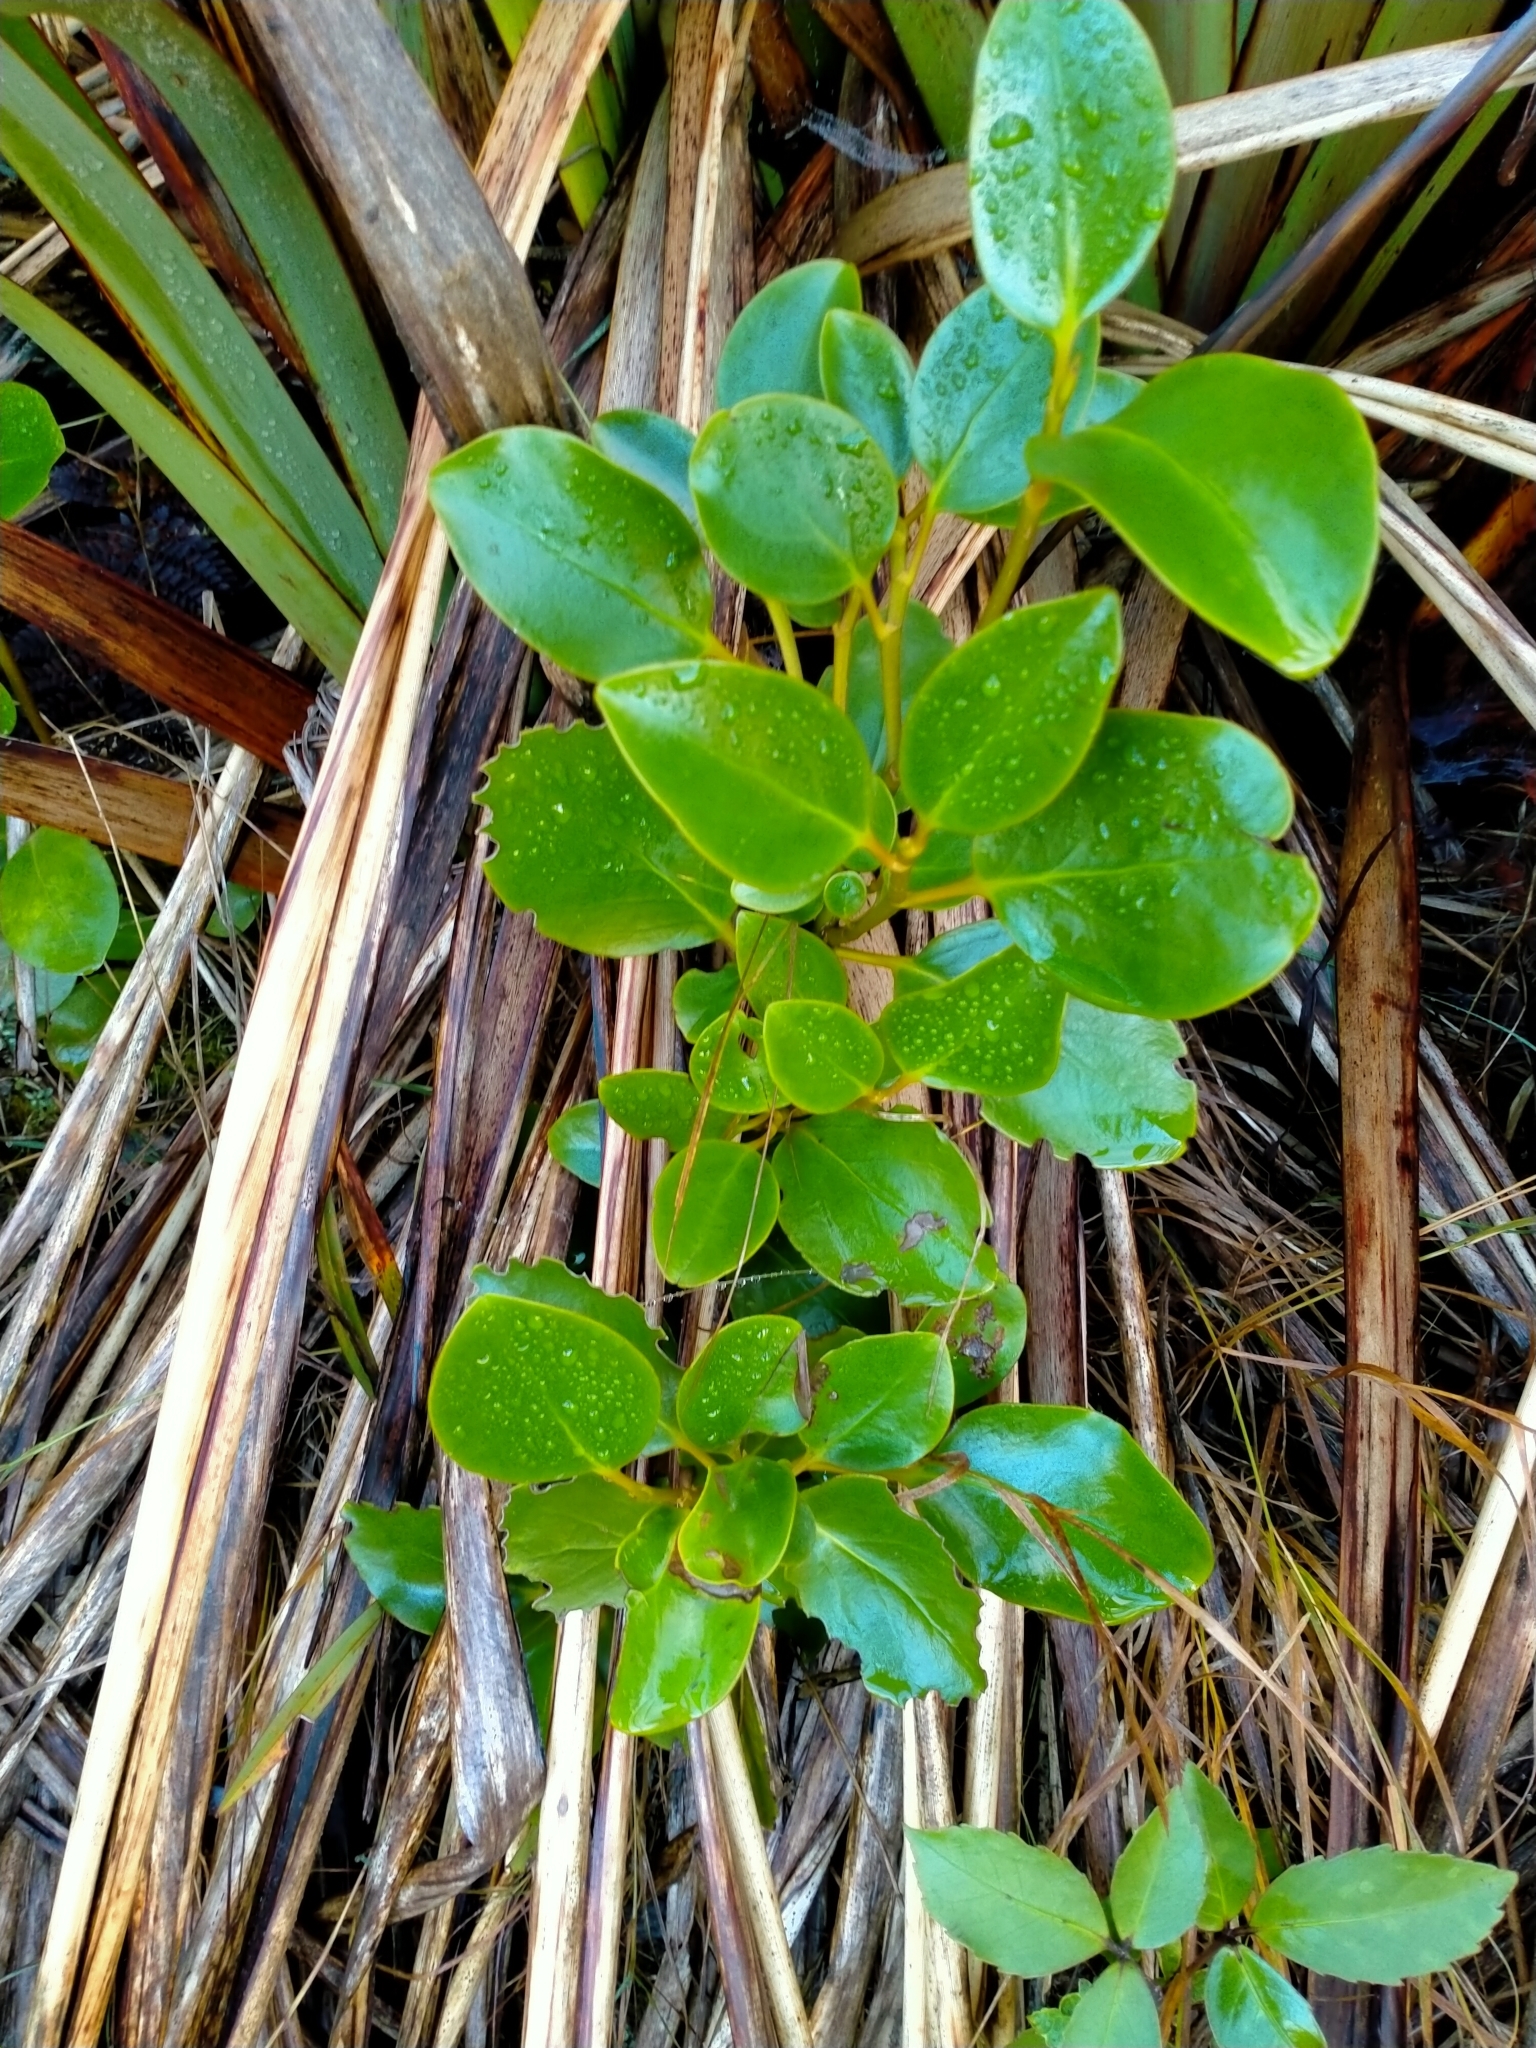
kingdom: Plantae
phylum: Tracheophyta
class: Magnoliopsida
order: Apiales
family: Griseliniaceae
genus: Griselinia
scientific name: Griselinia littoralis
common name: New zealand broadleaf
